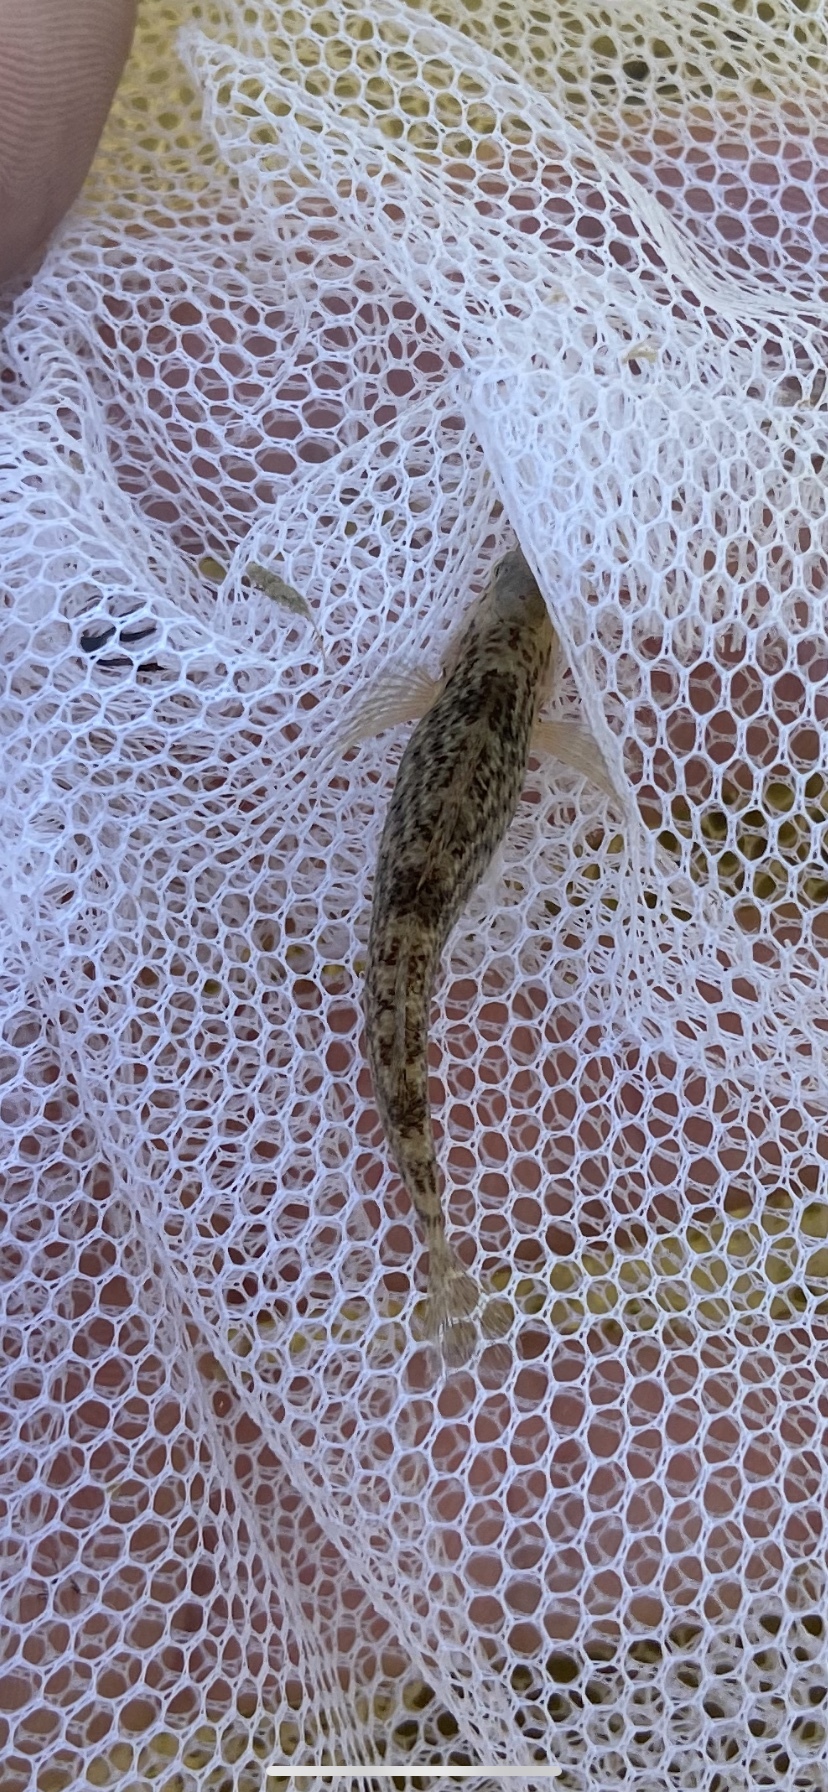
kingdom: Animalia
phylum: Chordata
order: Perciformes
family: Percidae
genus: Etheostoma
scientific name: Etheostoma caeruleum
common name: Rainbow darter
